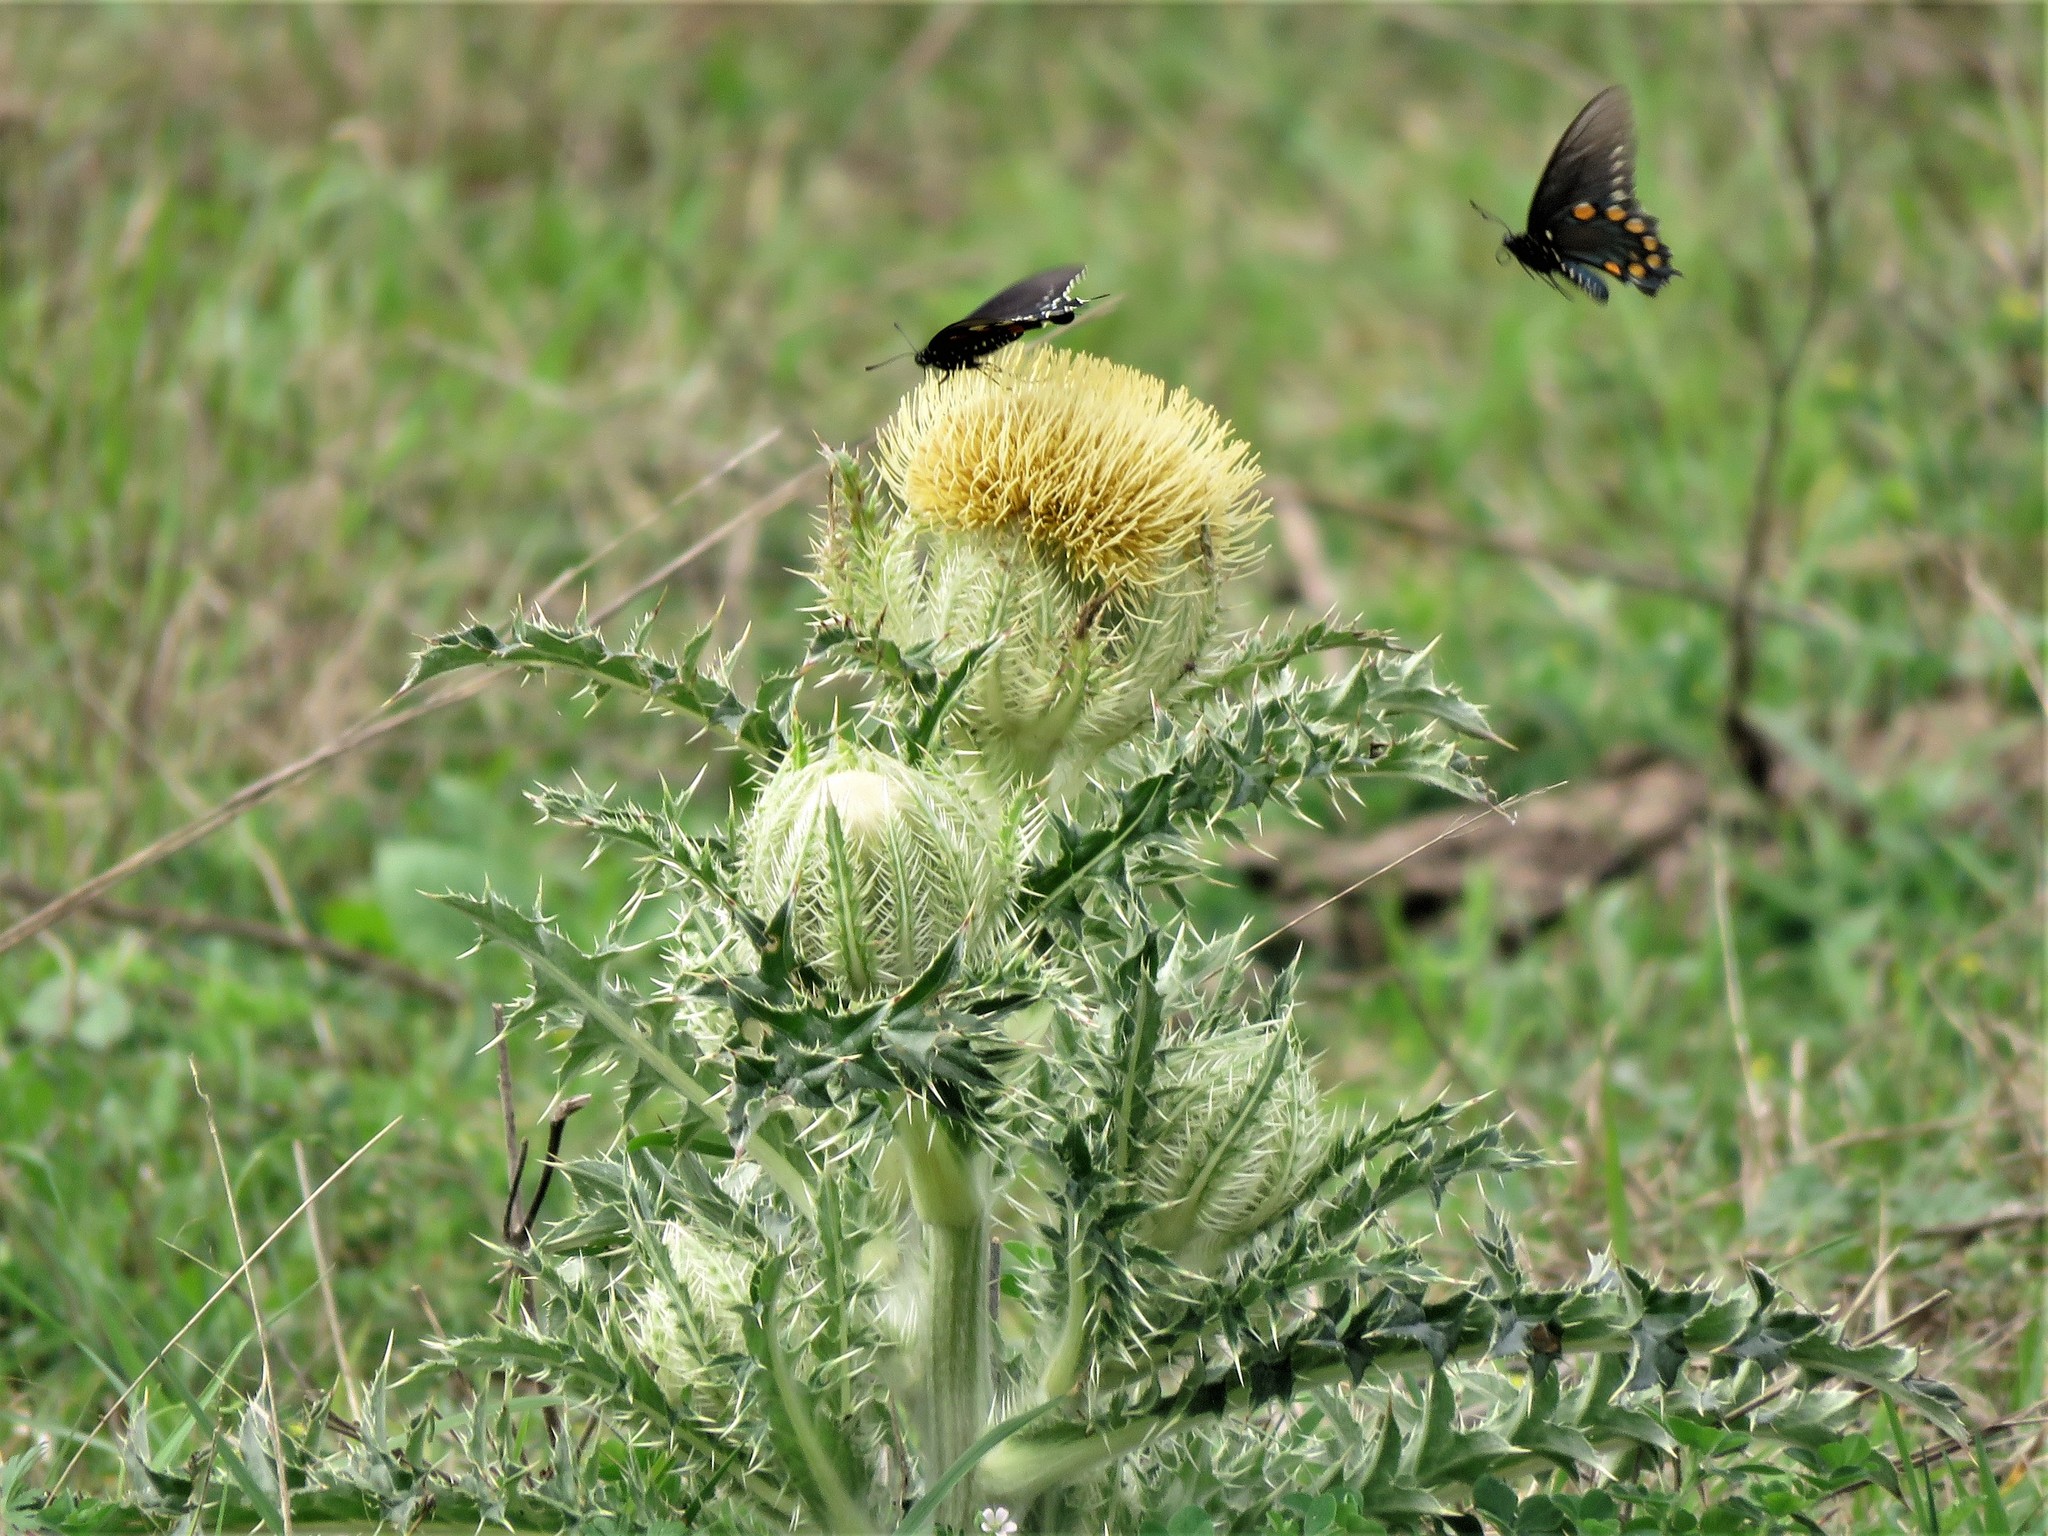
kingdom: Plantae
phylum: Tracheophyta
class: Magnoliopsida
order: Asterales
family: Asteraceae
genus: Cirsium
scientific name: Cirsium horridulum
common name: Bristly thistle
